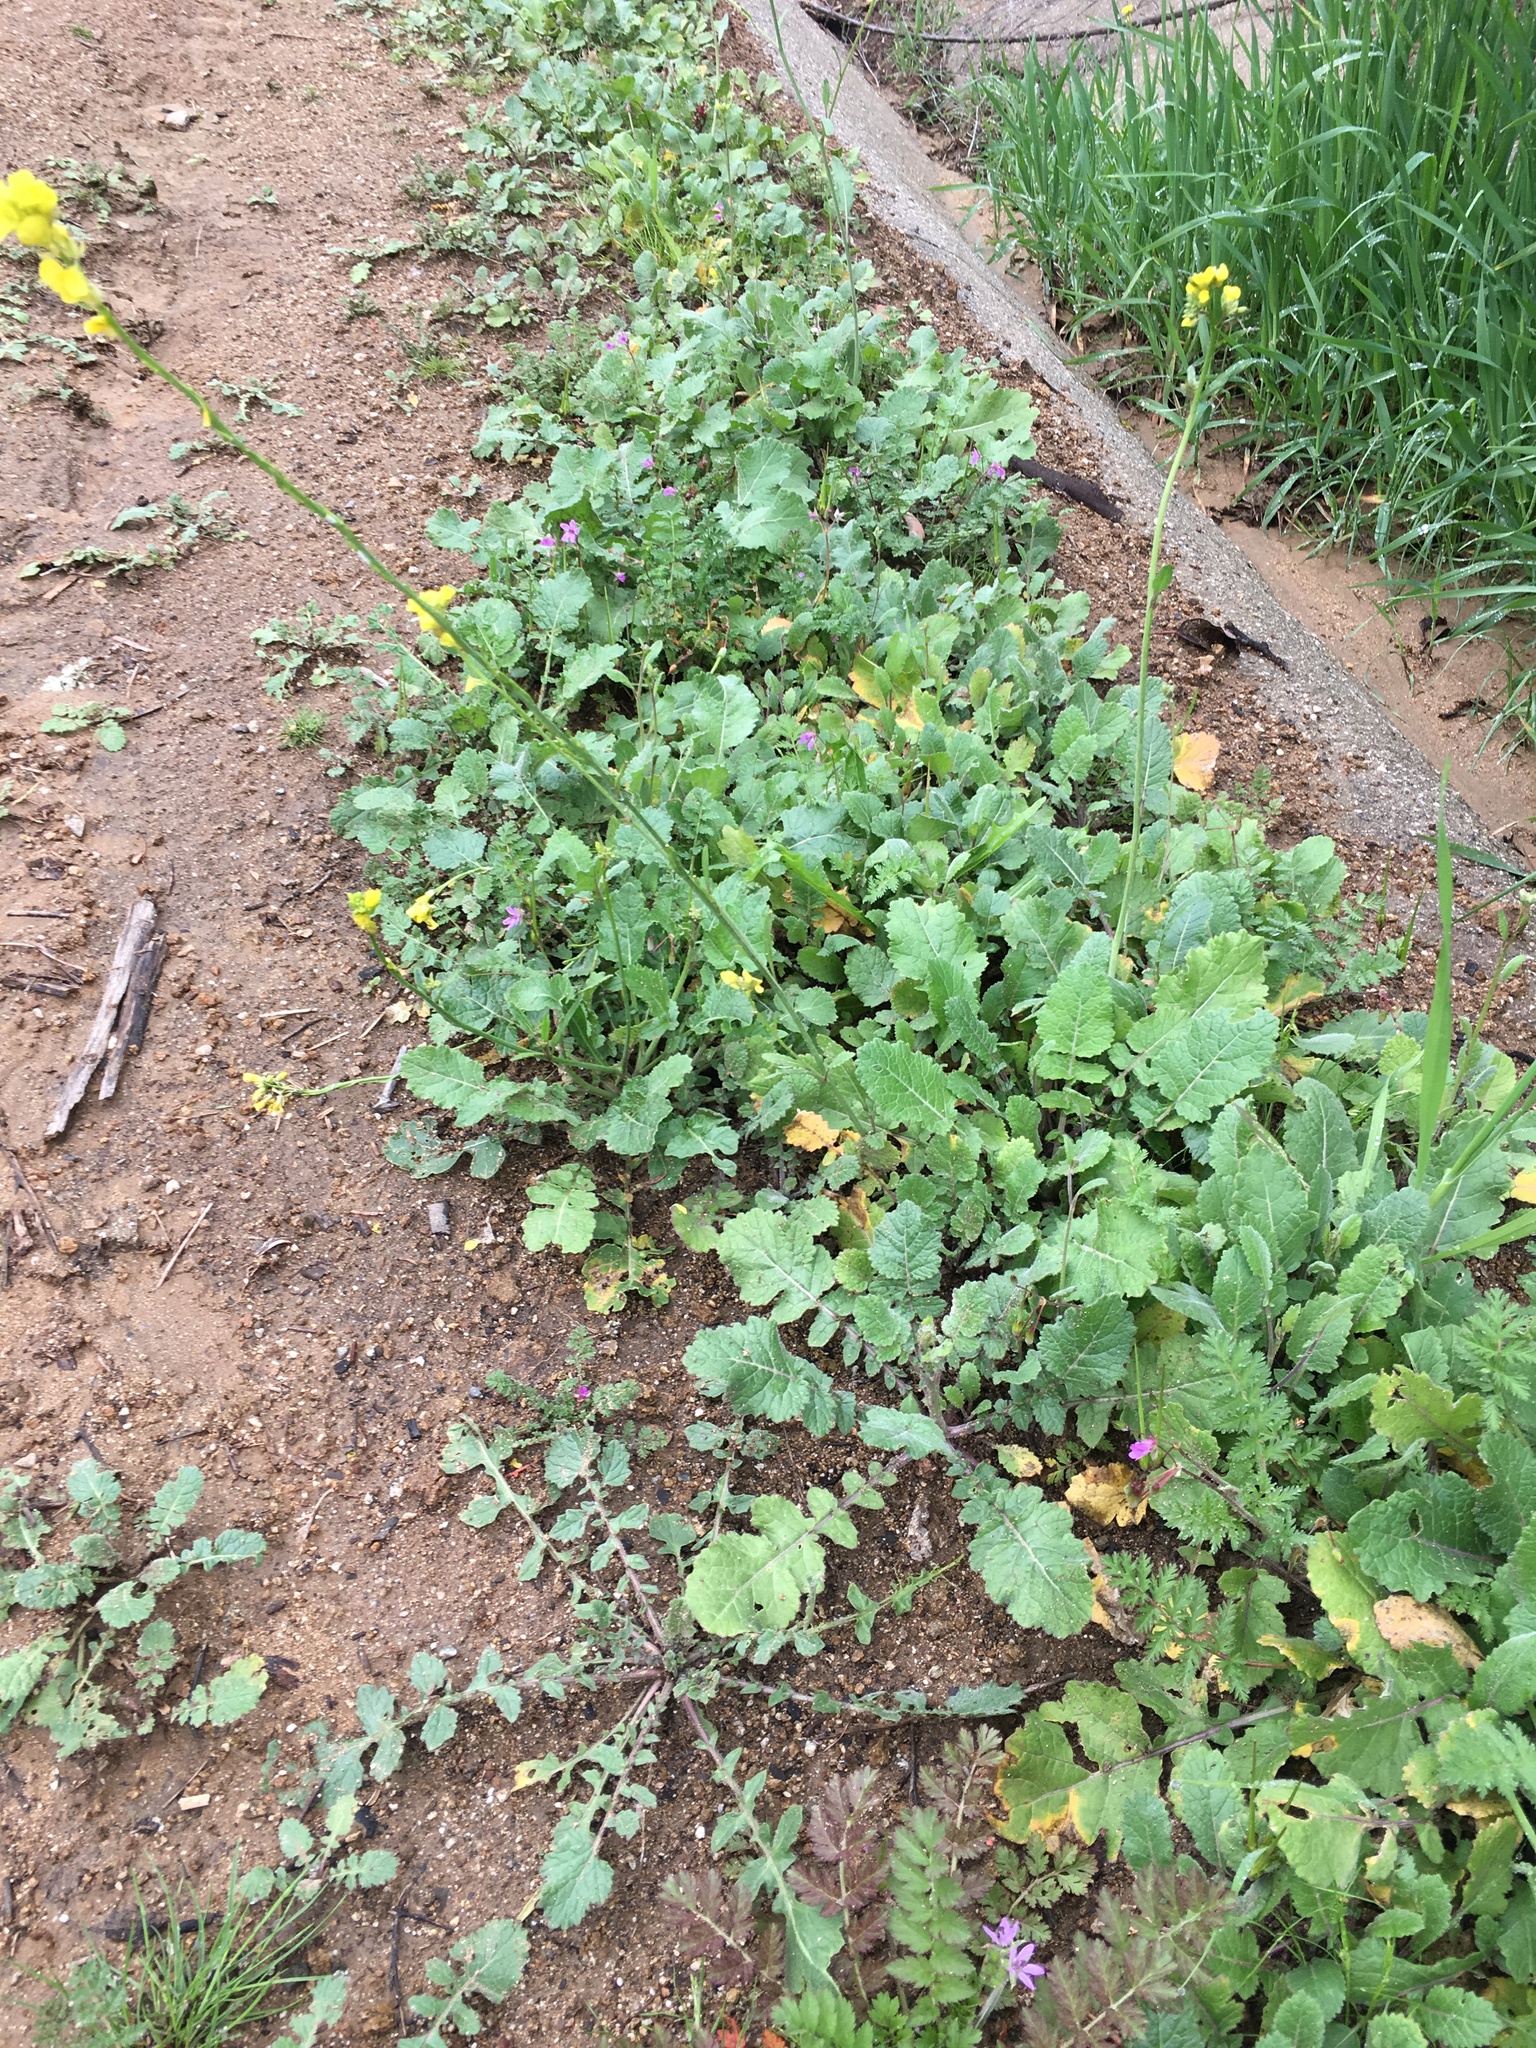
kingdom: Plantae
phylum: Tracheophyta
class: Magnoliopsida
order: Brassicales
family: Brassicaceae
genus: Hirschfeldia
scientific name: Hirschfeldia incana
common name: Hoary mustard
